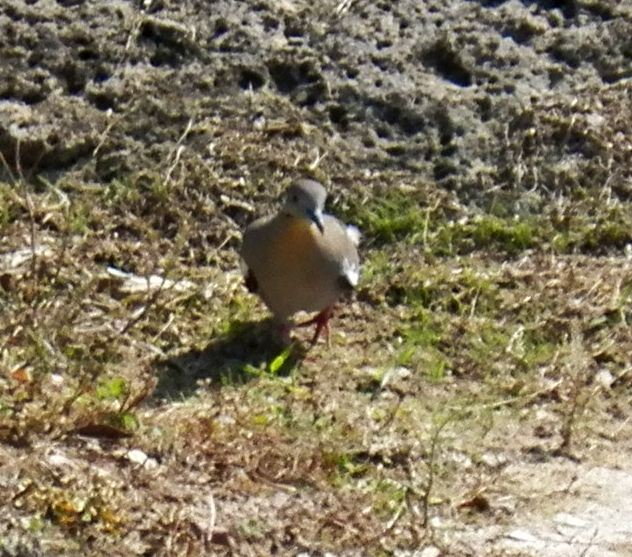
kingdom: Animalia
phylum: Chordata
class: Aves
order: Columbiformes
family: Columbidae
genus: Zenaida
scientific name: Zenaida asiatica
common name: White-winged dove
